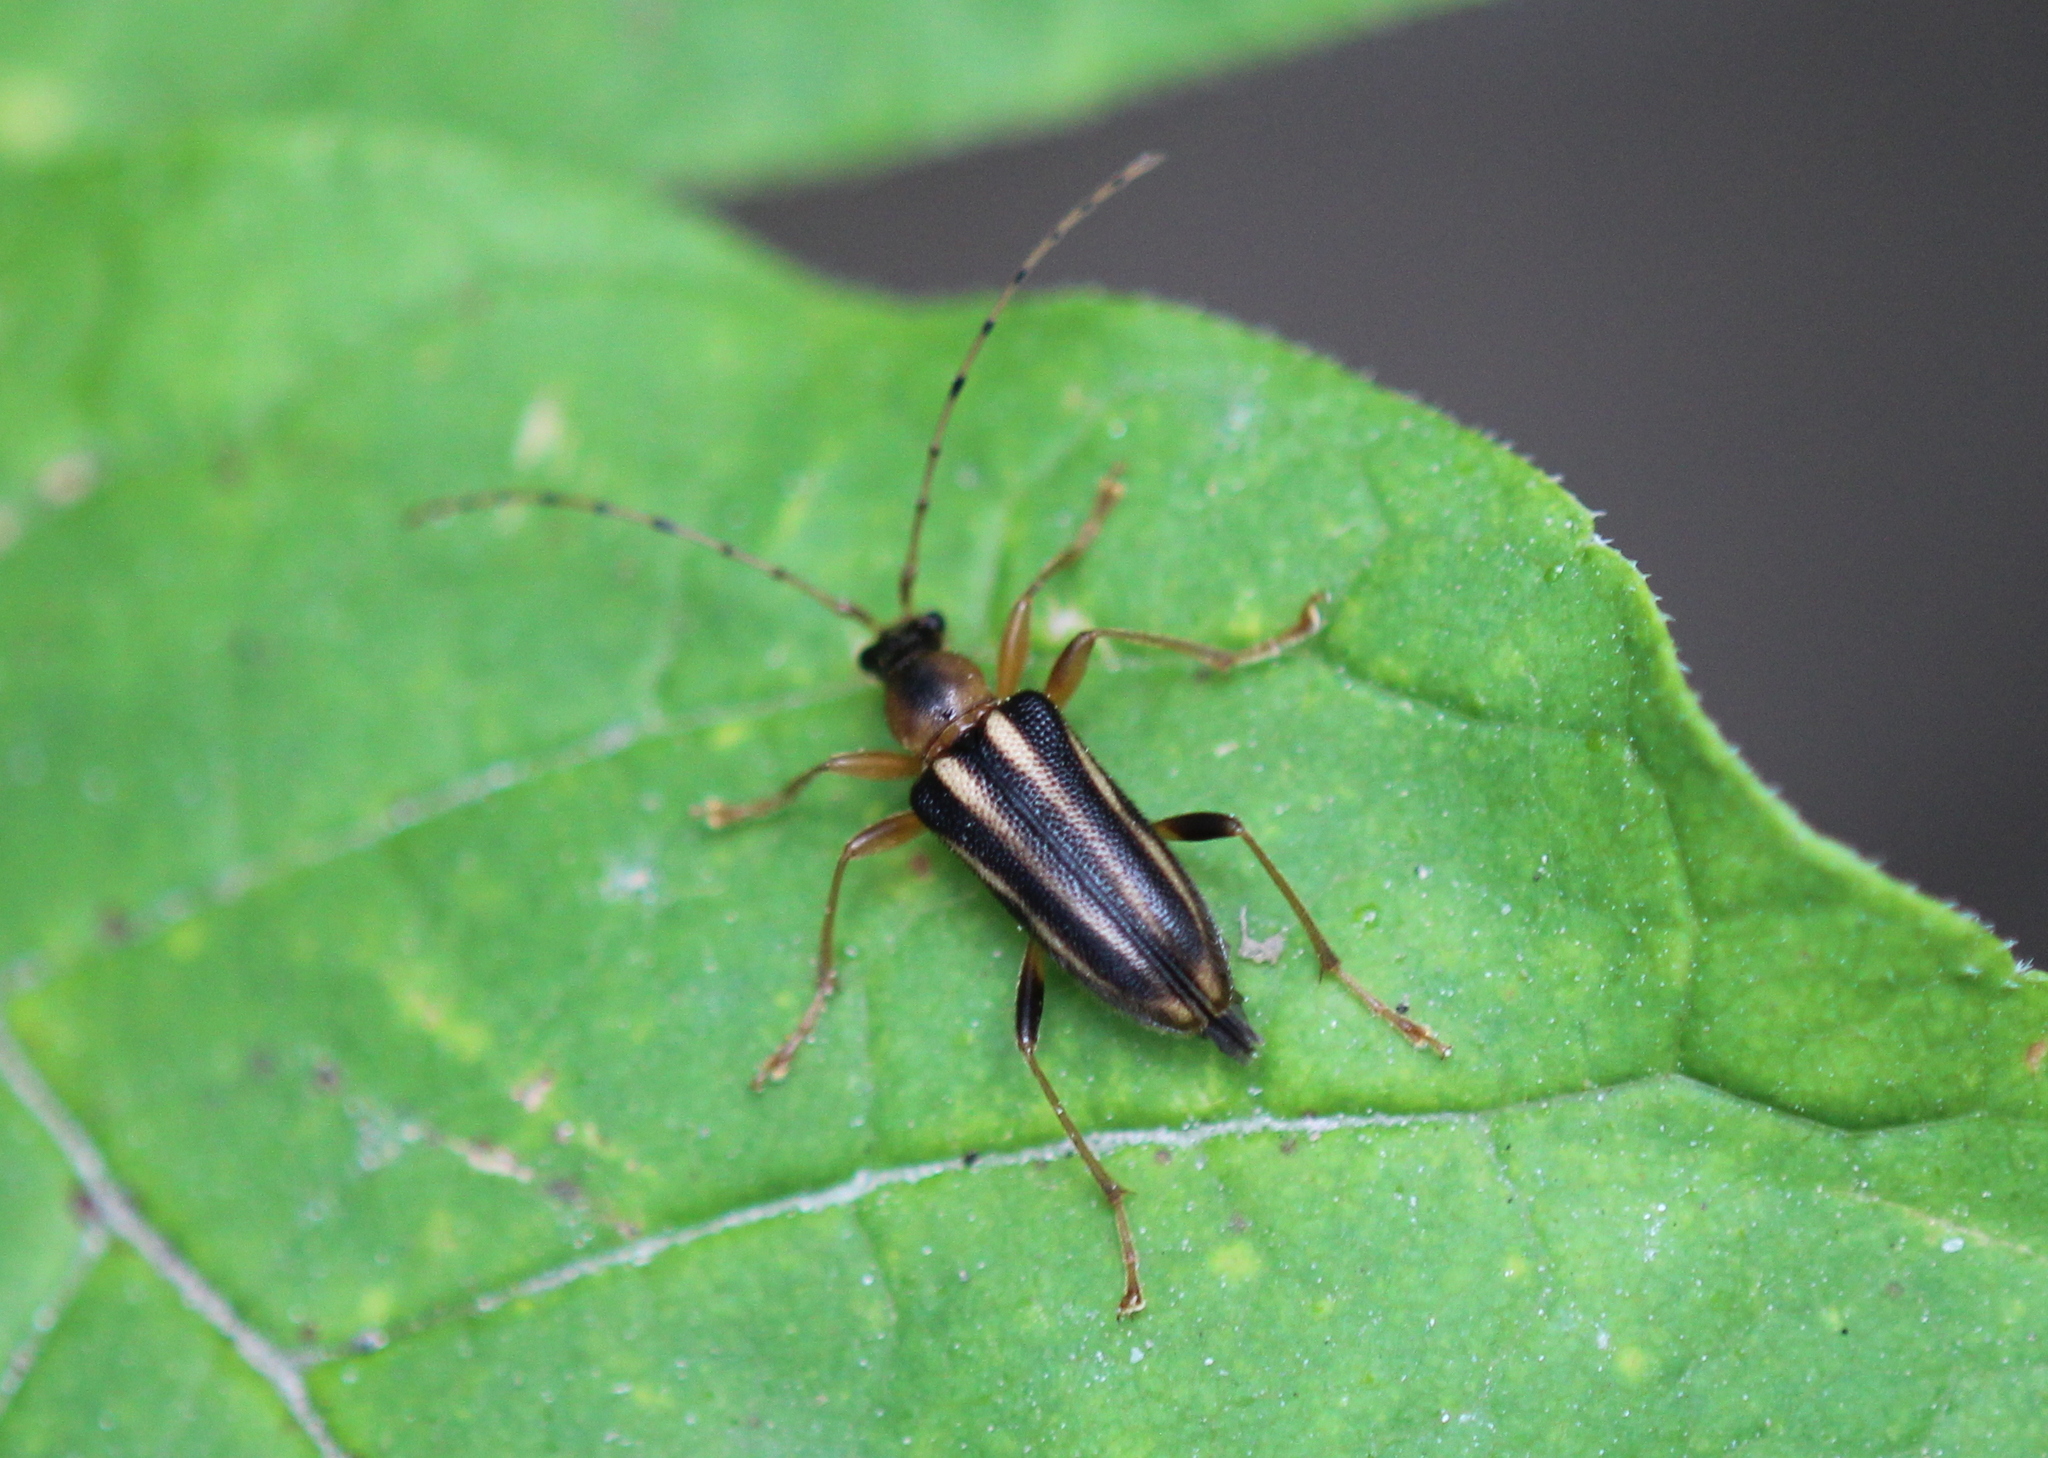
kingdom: Animalia
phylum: Arthropoda
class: Insecta
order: Coleoptera
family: Cerambycidae
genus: Metacmaeops
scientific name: Metacmaeops vittata
